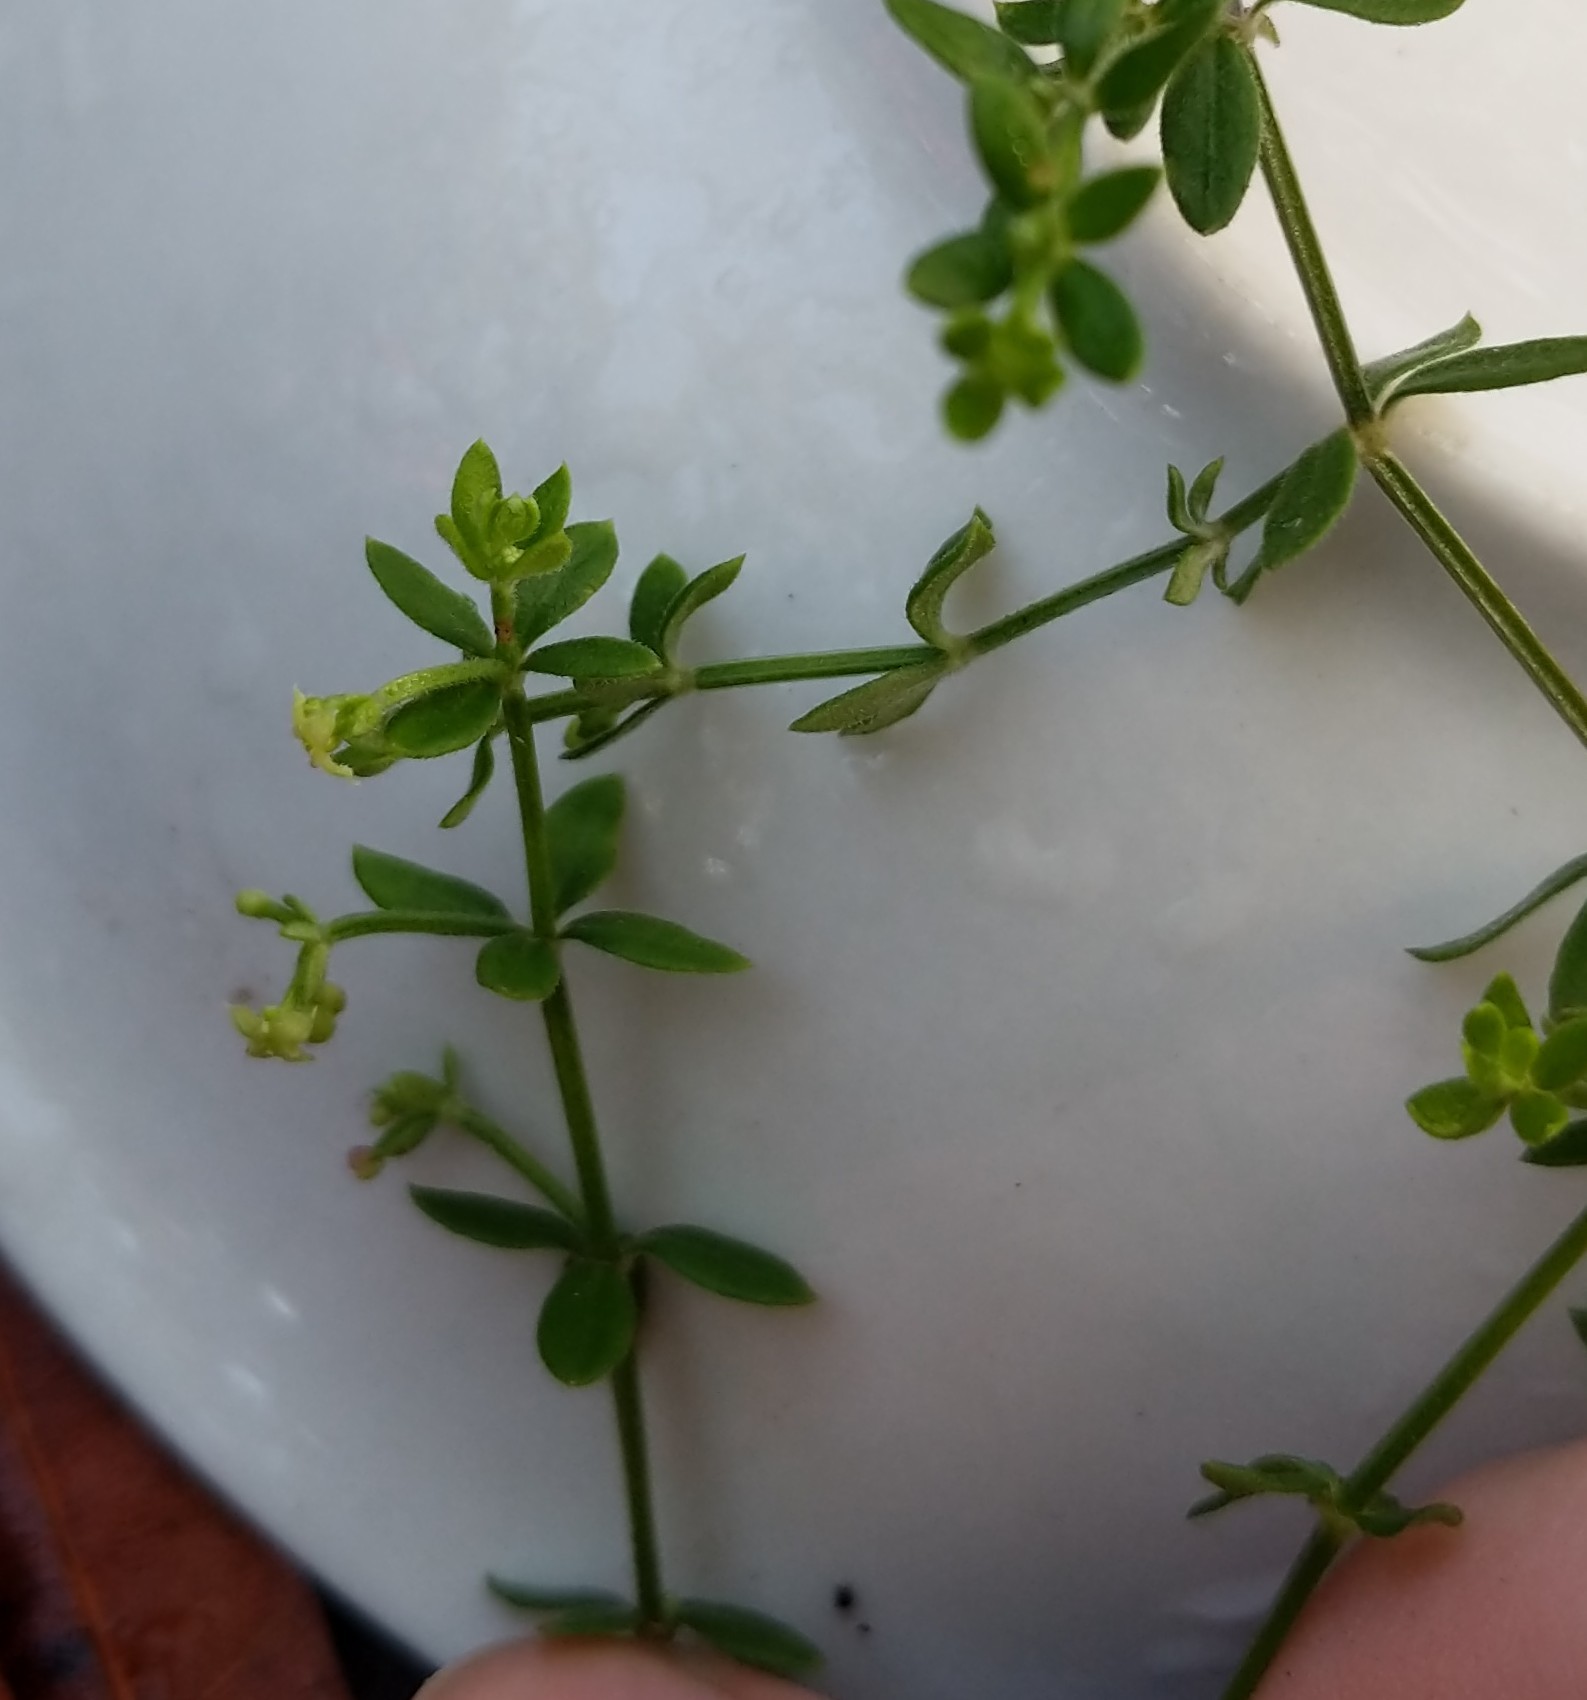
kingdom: Plantae
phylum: Tracheophyta
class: Magnoliopsida
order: Gentianales
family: Rubiaceae
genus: Galium
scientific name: Galium bermudense
